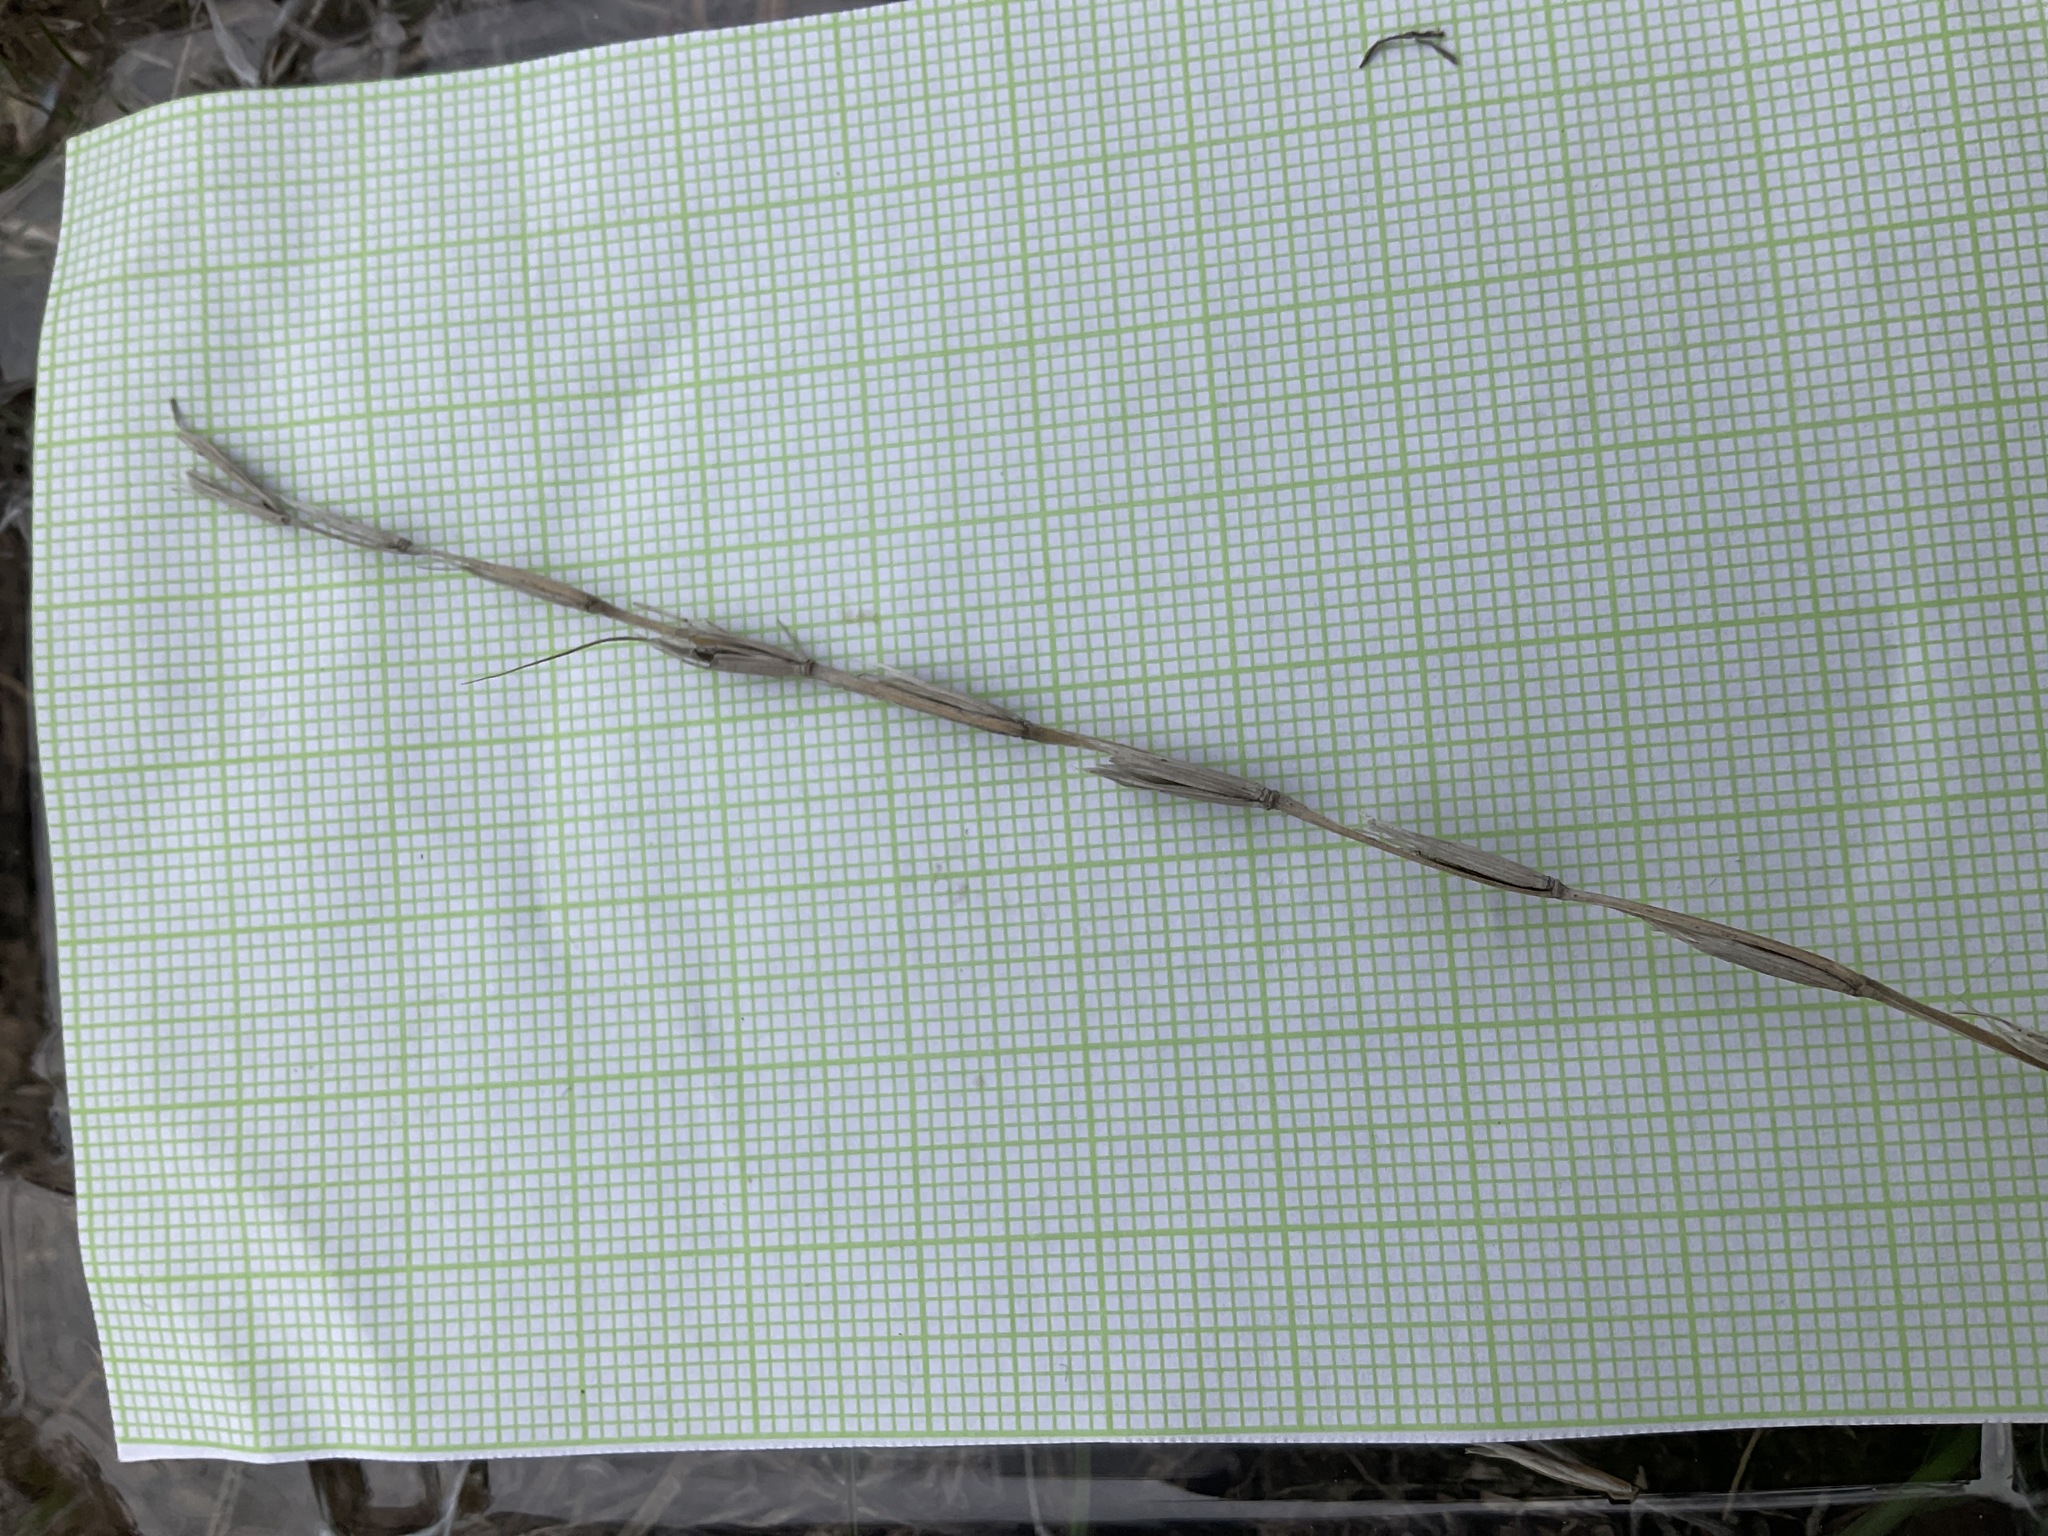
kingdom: Plantae
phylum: Tracheophyta
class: Liliopsida
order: Poales
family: Poaceae
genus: Pseudoroegneria
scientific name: Pseudoroegneria spicata
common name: Bluebunch wheatgrass
